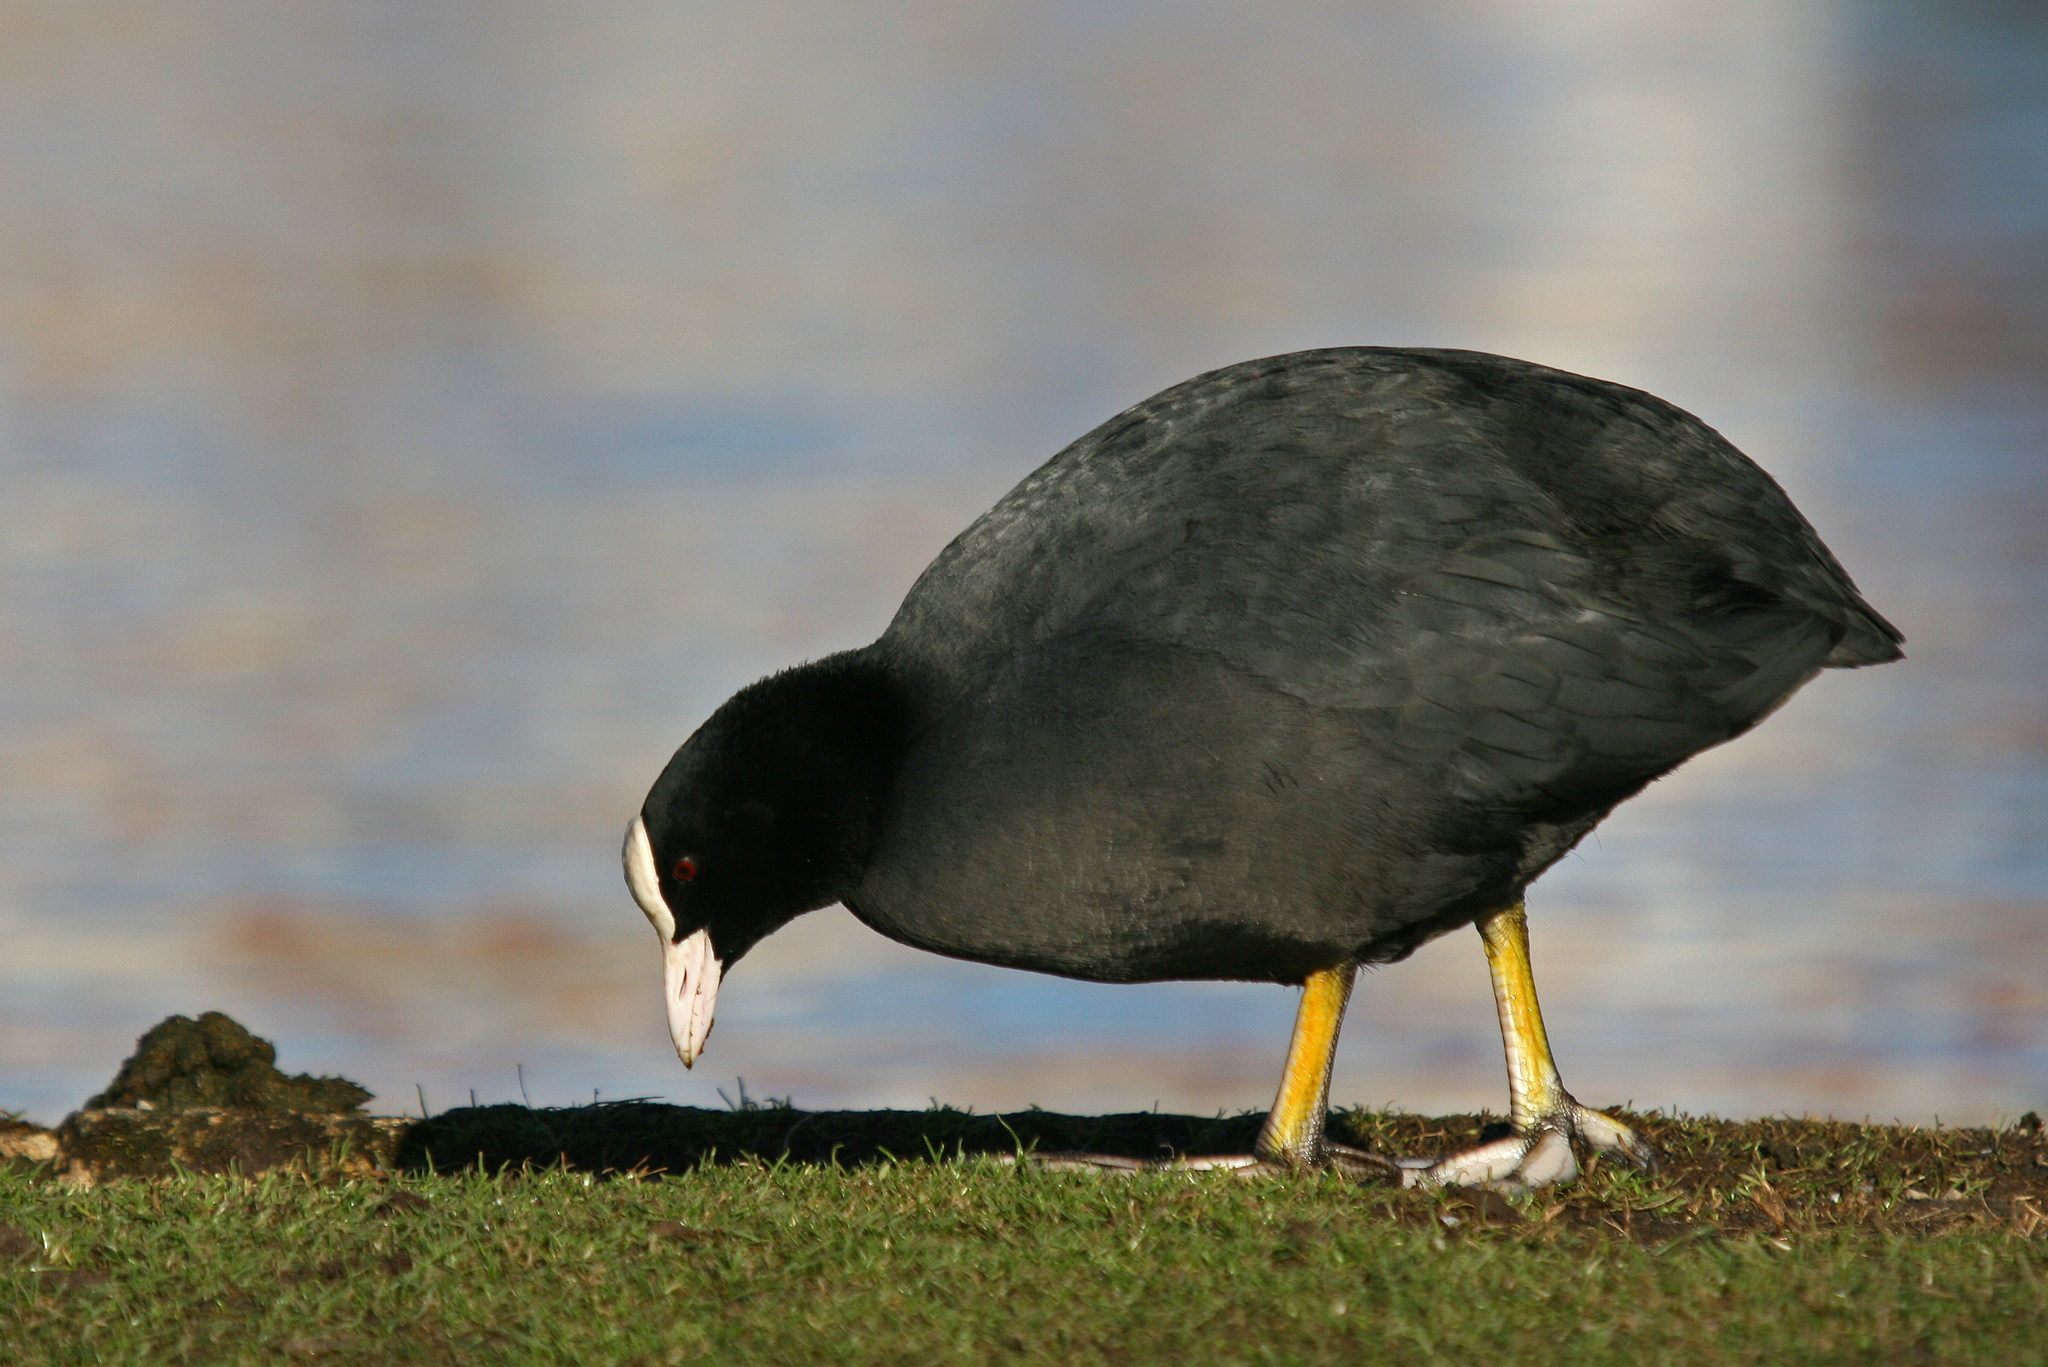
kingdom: Animalia
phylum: Chordata
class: Aves
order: Gruiformes
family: Rallidae
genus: Fulica
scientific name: Fulica atra
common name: Eurasian coot
